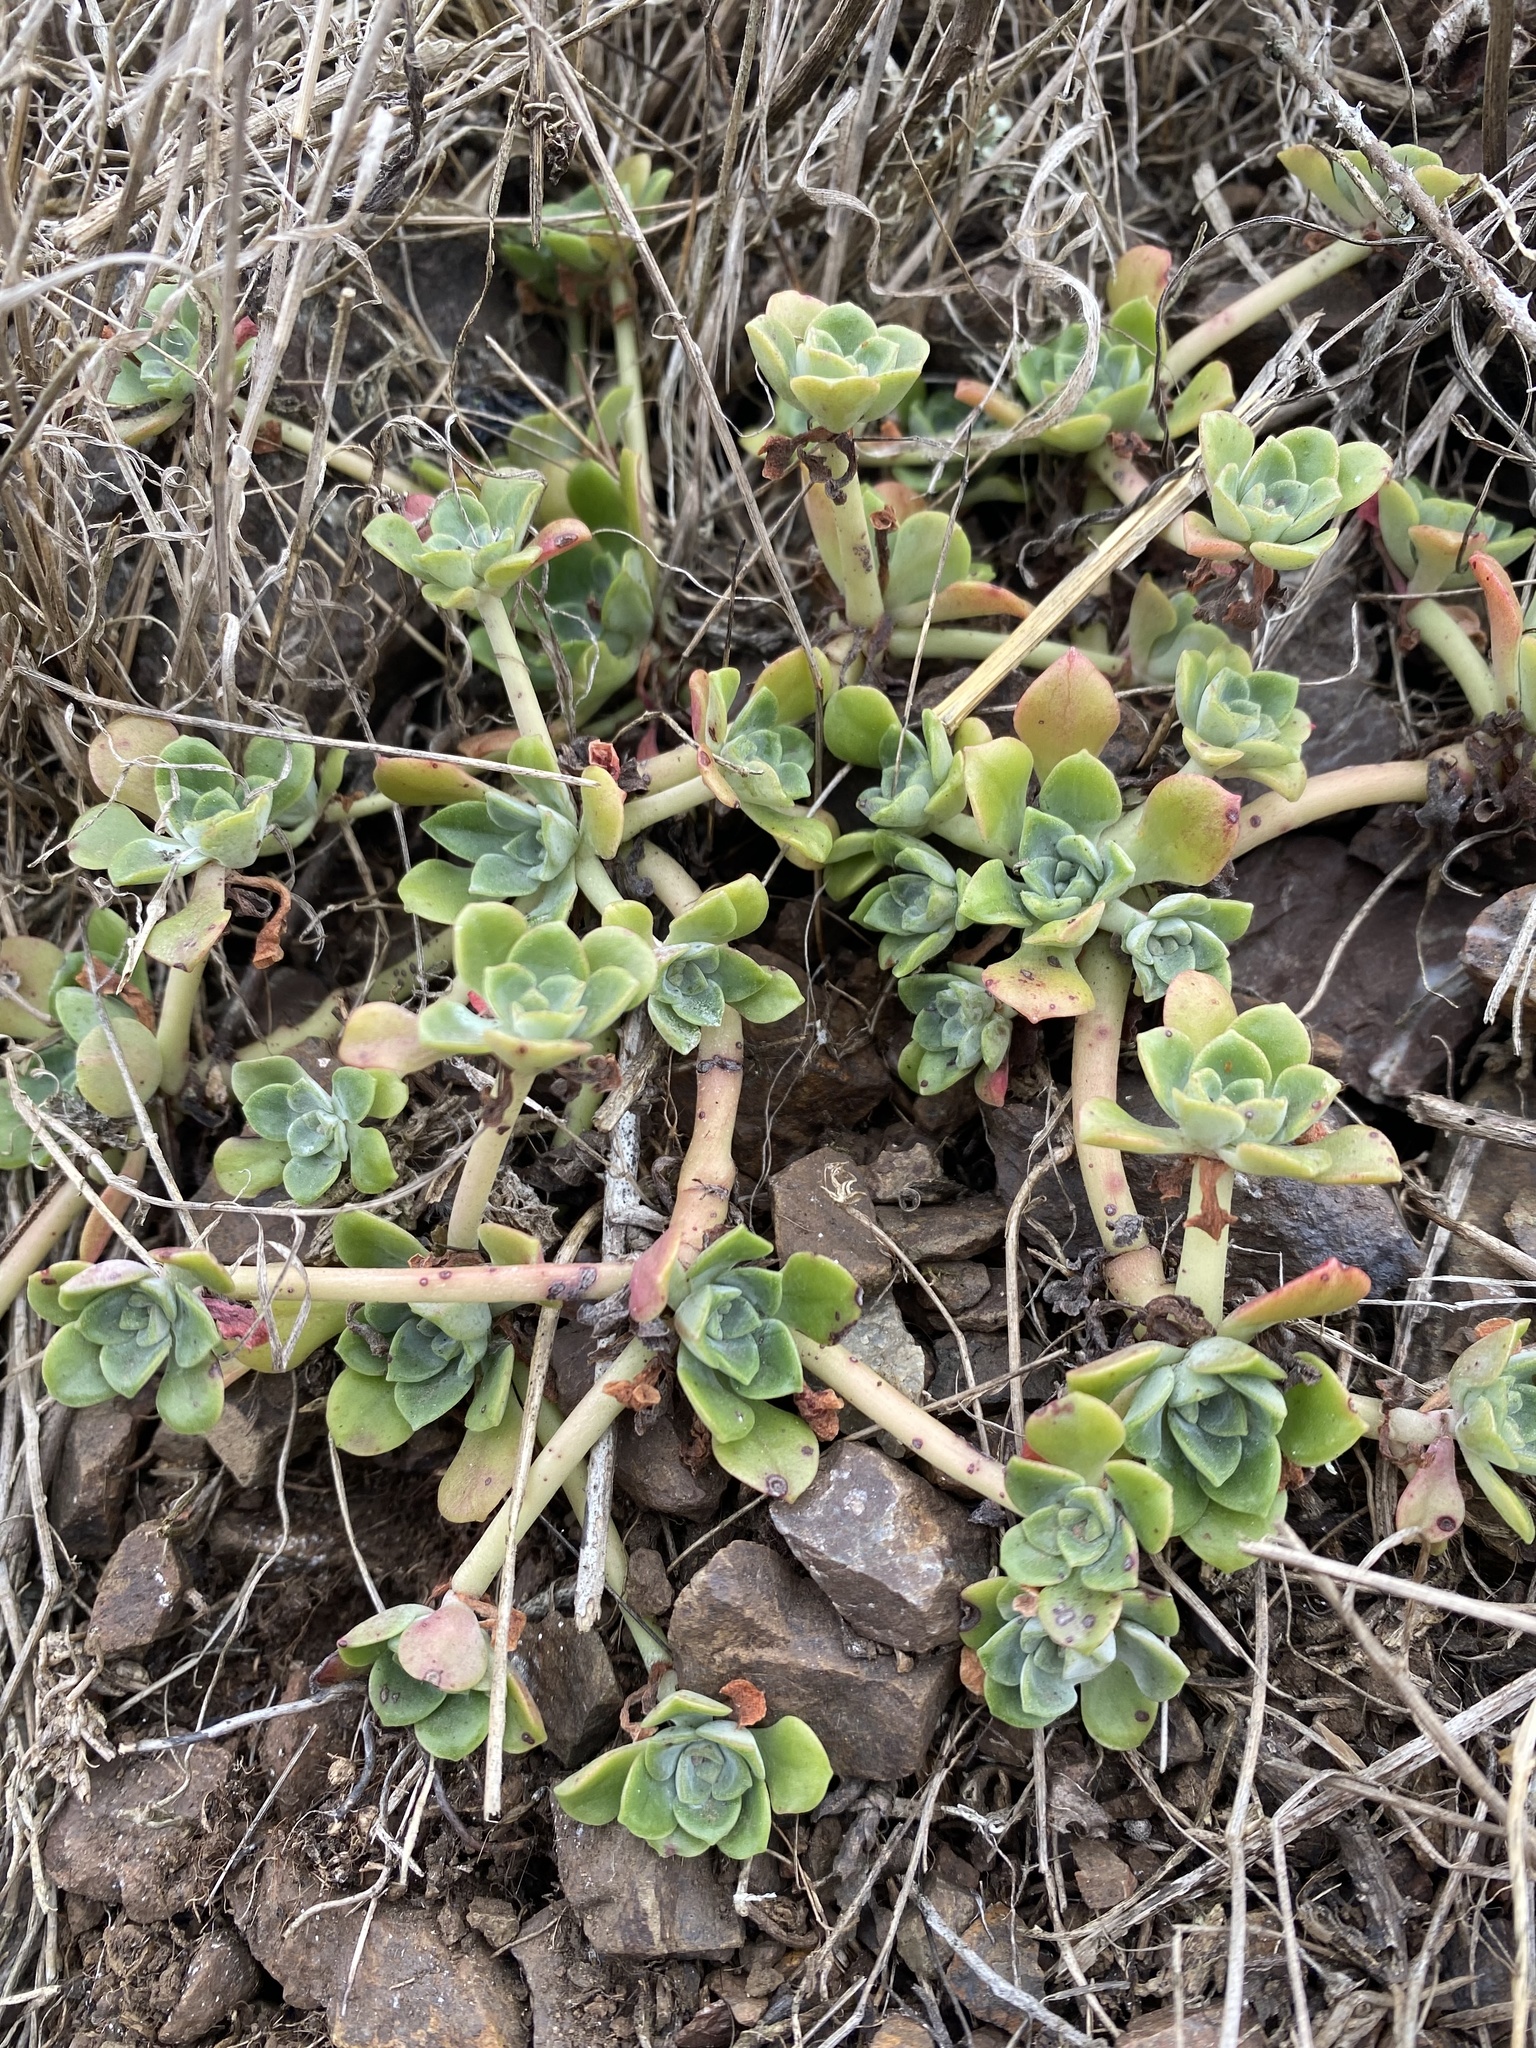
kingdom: Plantae
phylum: Tracheophyta
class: Magnoliopsida
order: Saxifragales
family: Crassulaceae
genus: Sedum
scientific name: Sedum spathulifolium
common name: Colorado stonecrop
